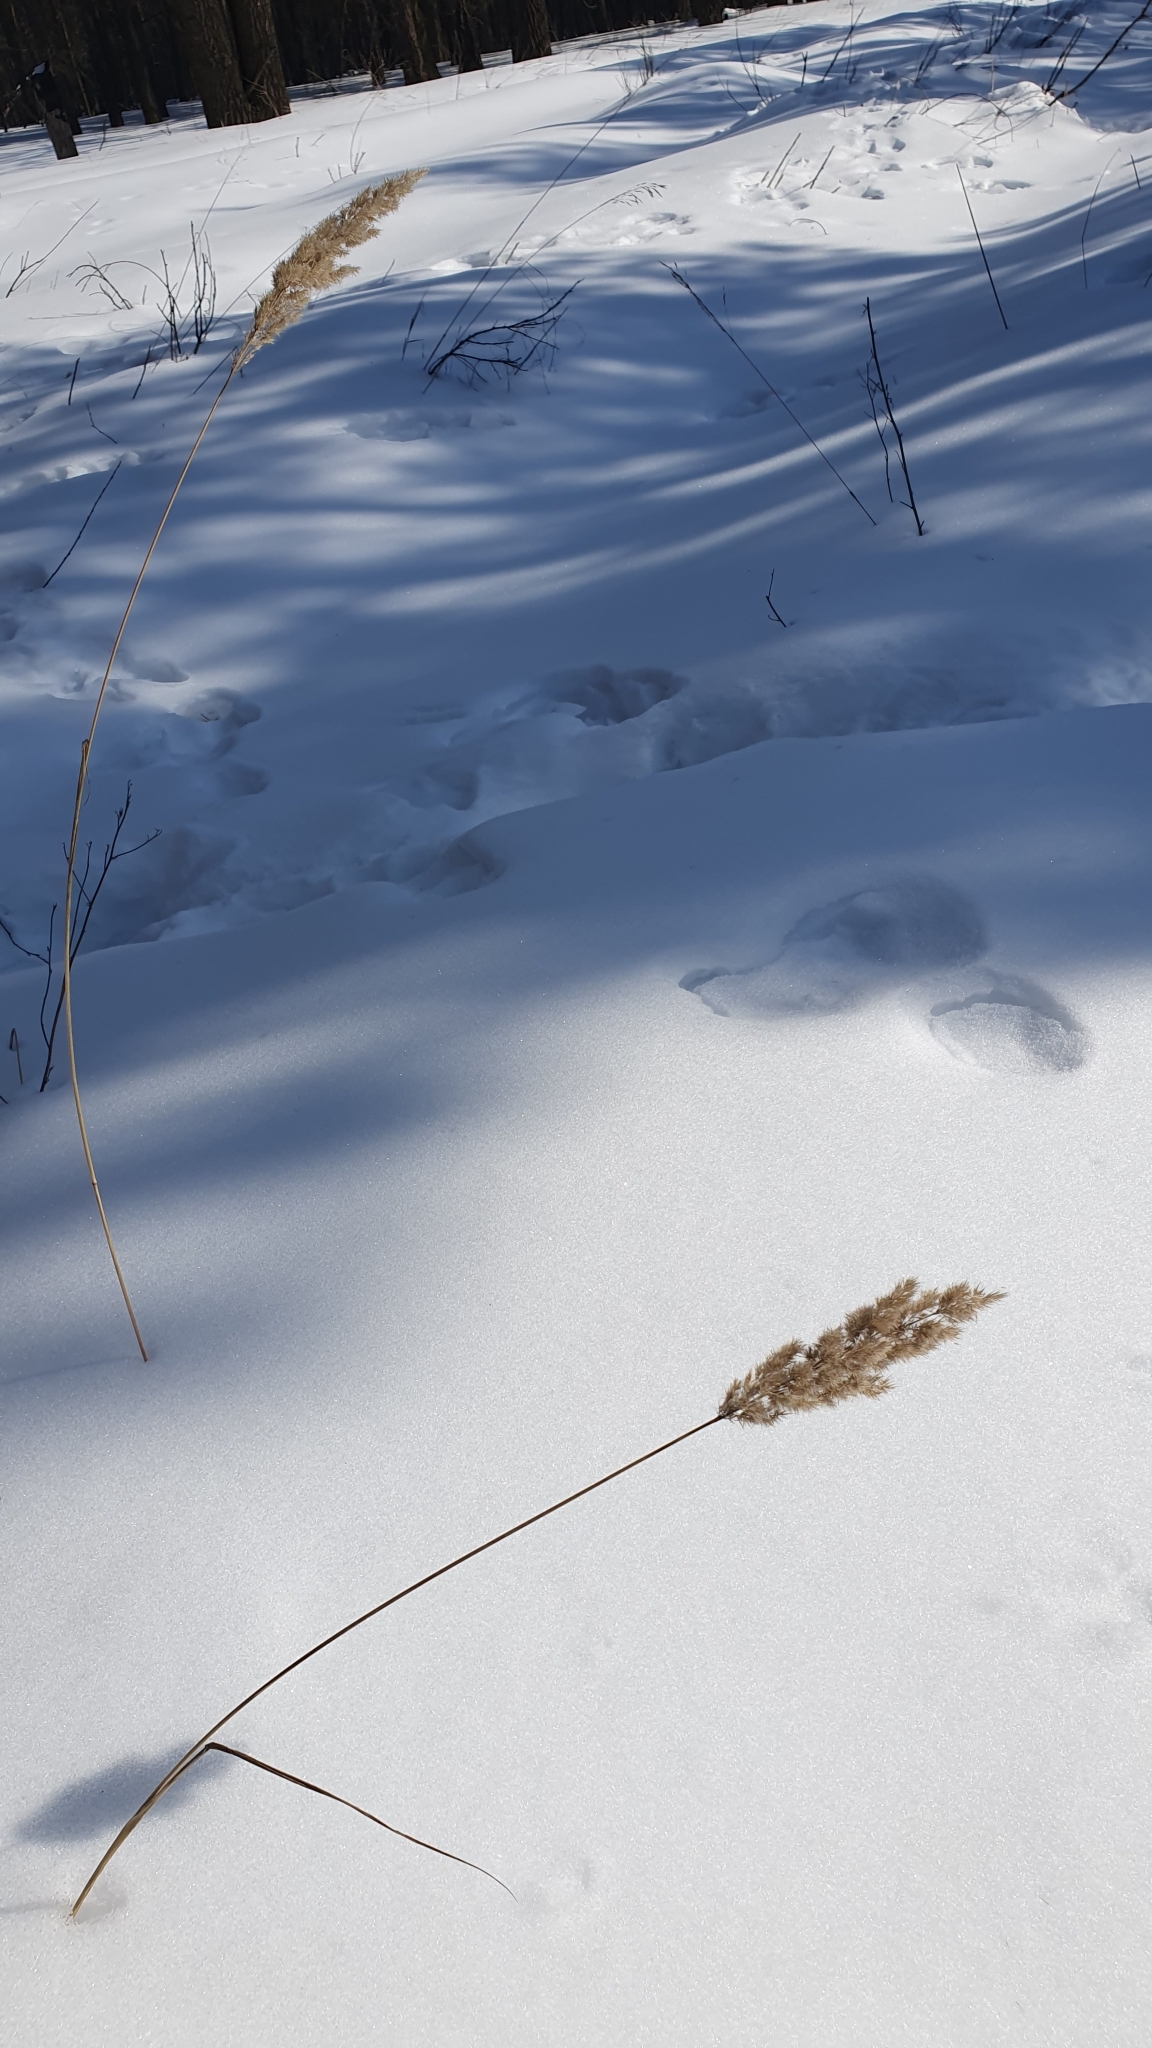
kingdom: Plantae
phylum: Tracheophyta
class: Liliopsida
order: Poales
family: Poaceae
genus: Calamagrostis
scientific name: Calamagrostis epigejos
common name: Wood small-reed
